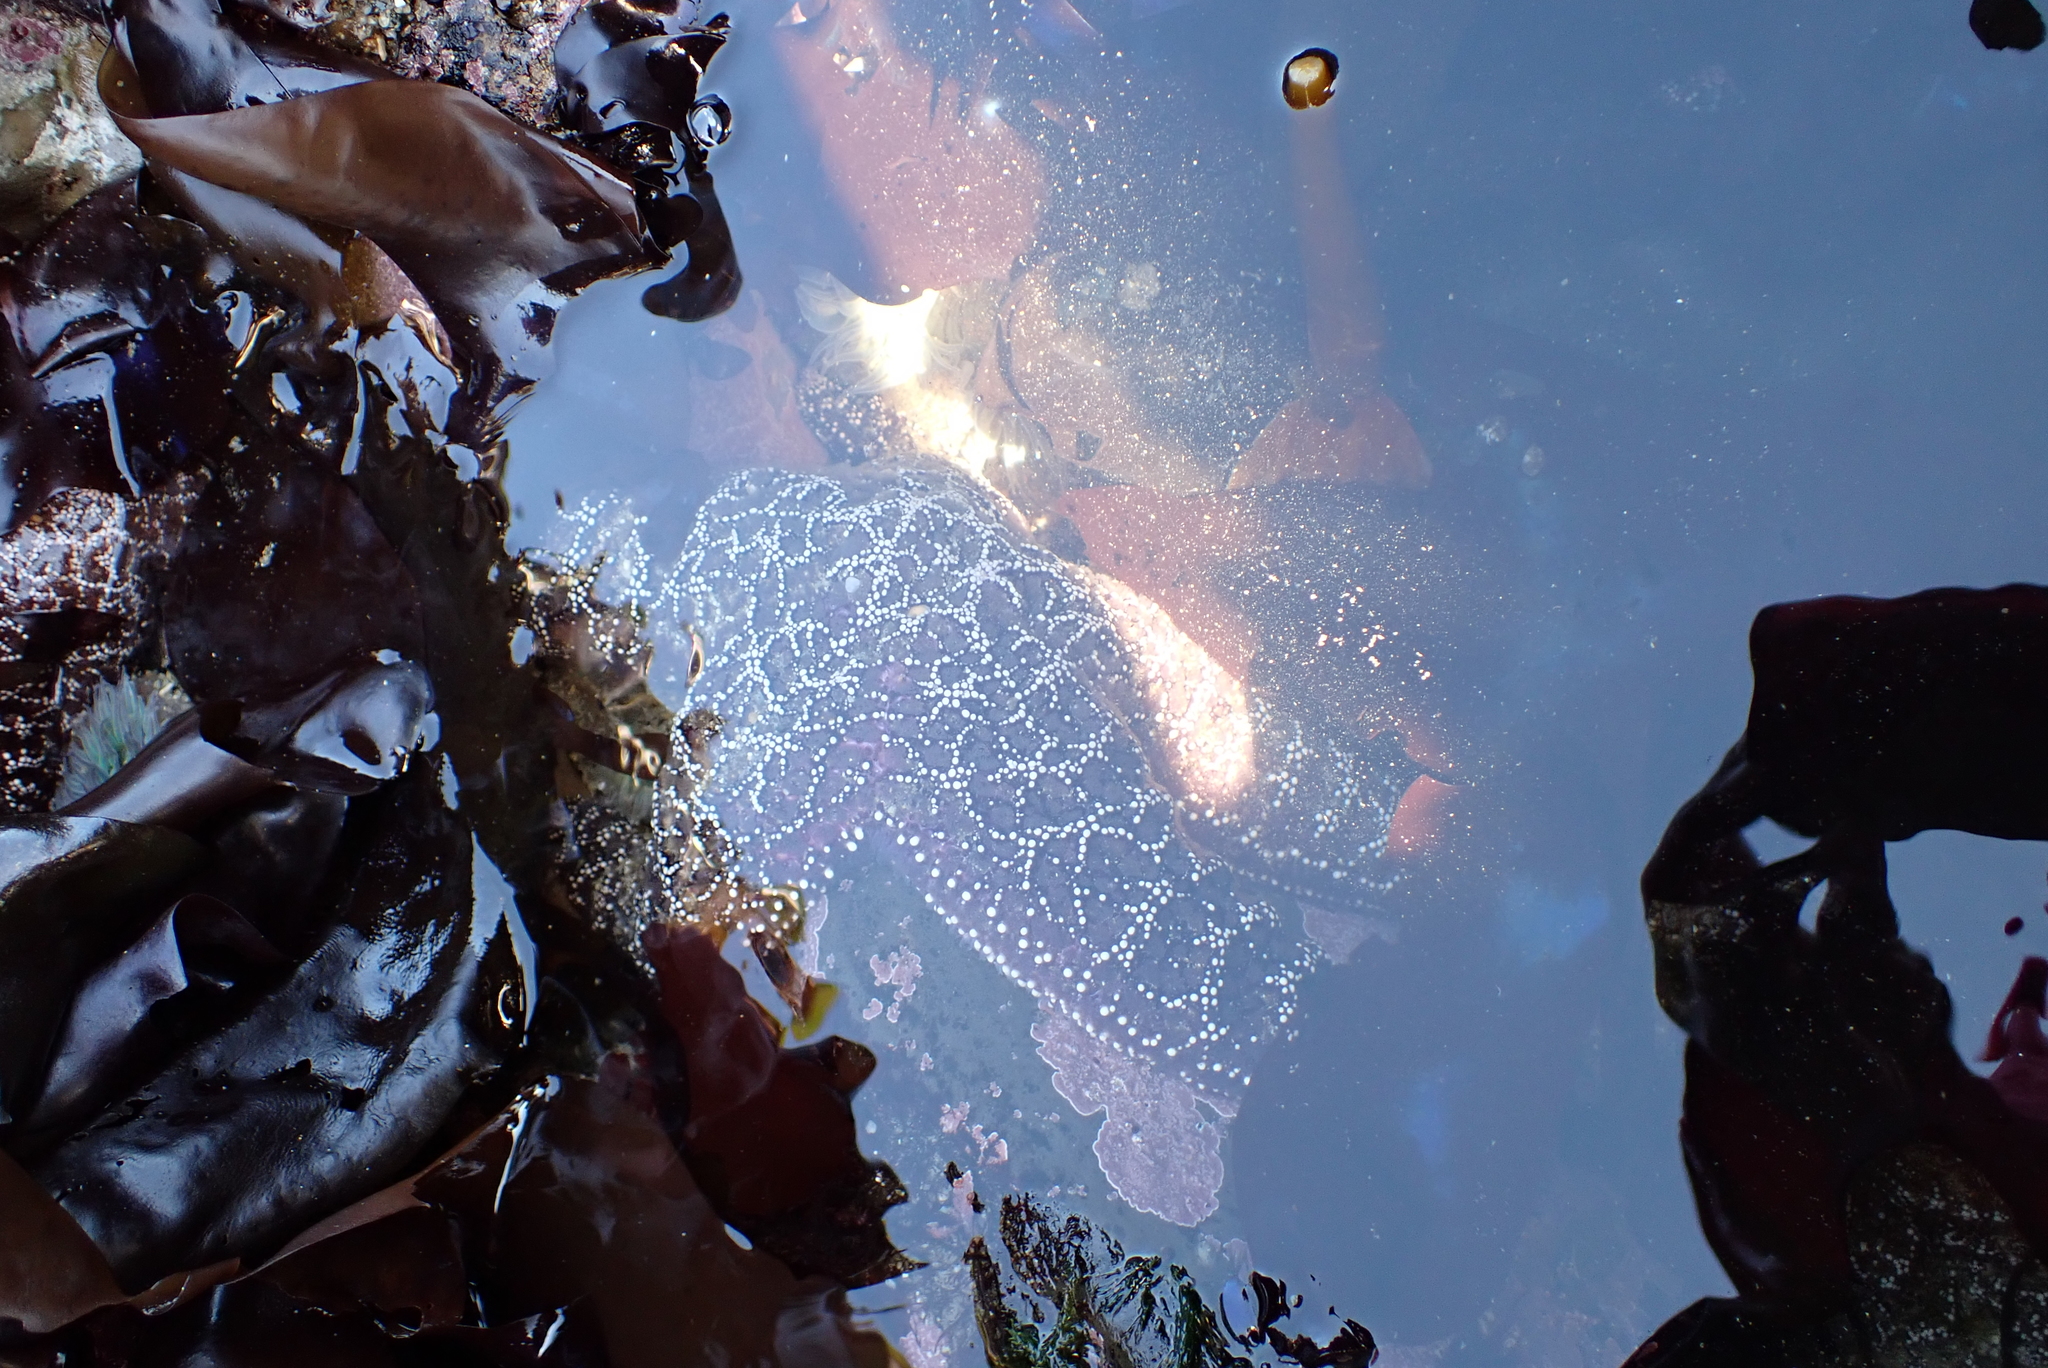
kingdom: Animalia
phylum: Echinodermata
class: Asteroidea
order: Forcipulatida
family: Asteriidae
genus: Pisaster
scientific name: Pisaster ochraceus
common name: Ochre stars
